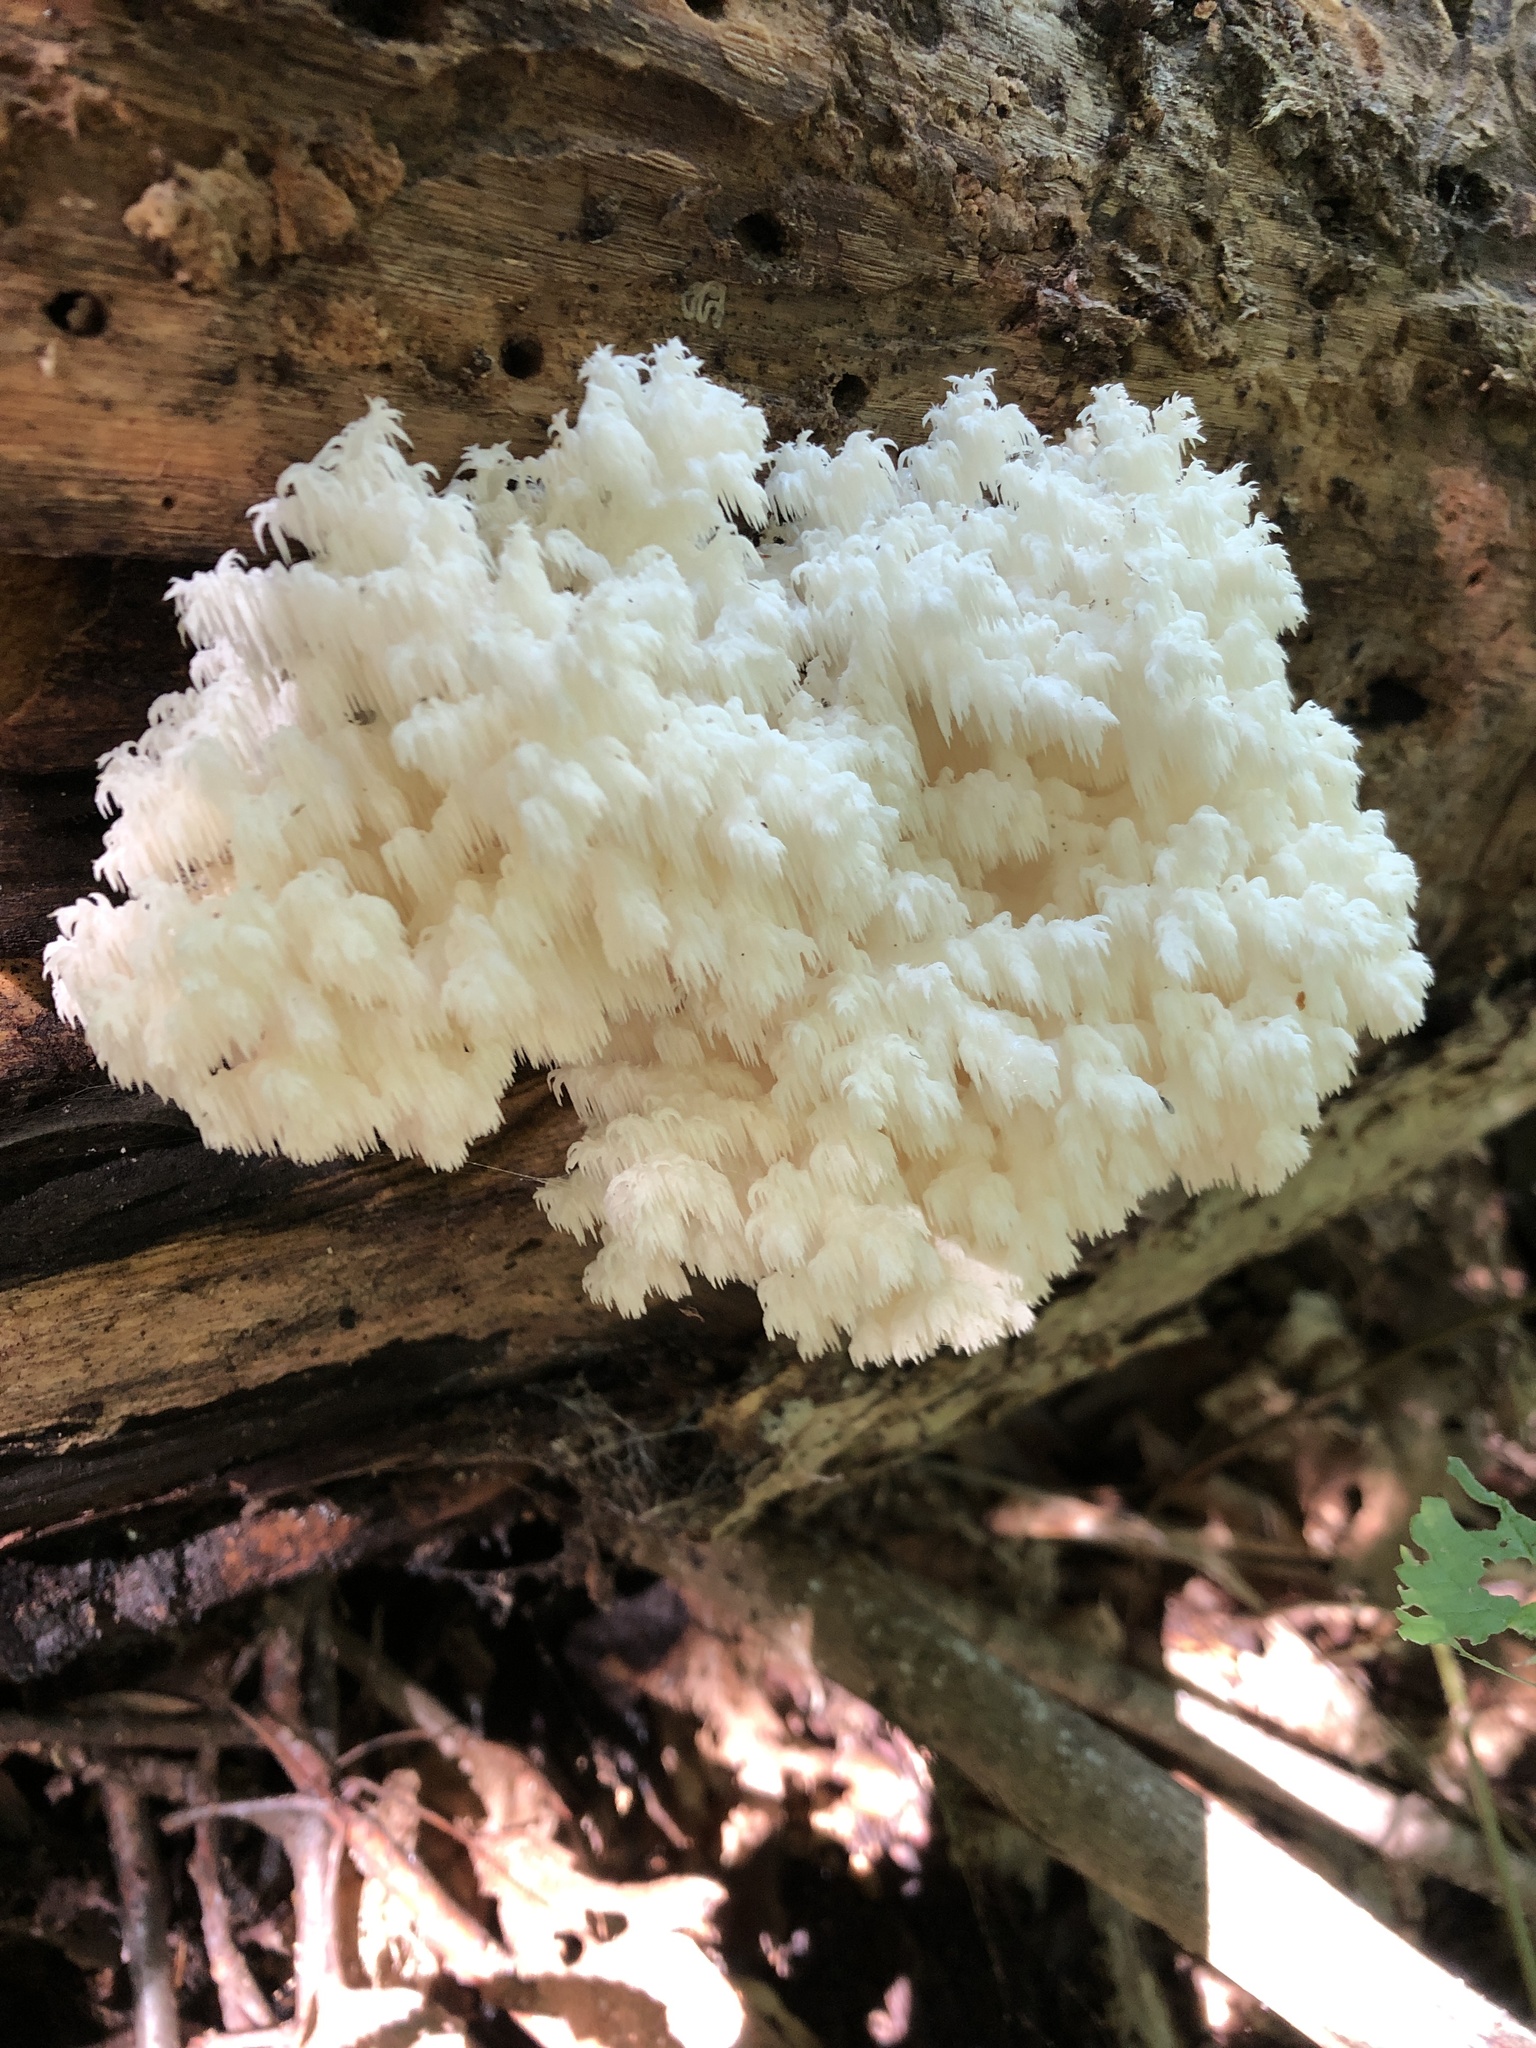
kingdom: Fungi
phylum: Basidiomycota
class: Agaricomycetes
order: Russulales
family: Hericiaceae
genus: Hericium
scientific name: Hericium coralloides
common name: Coral tooth
